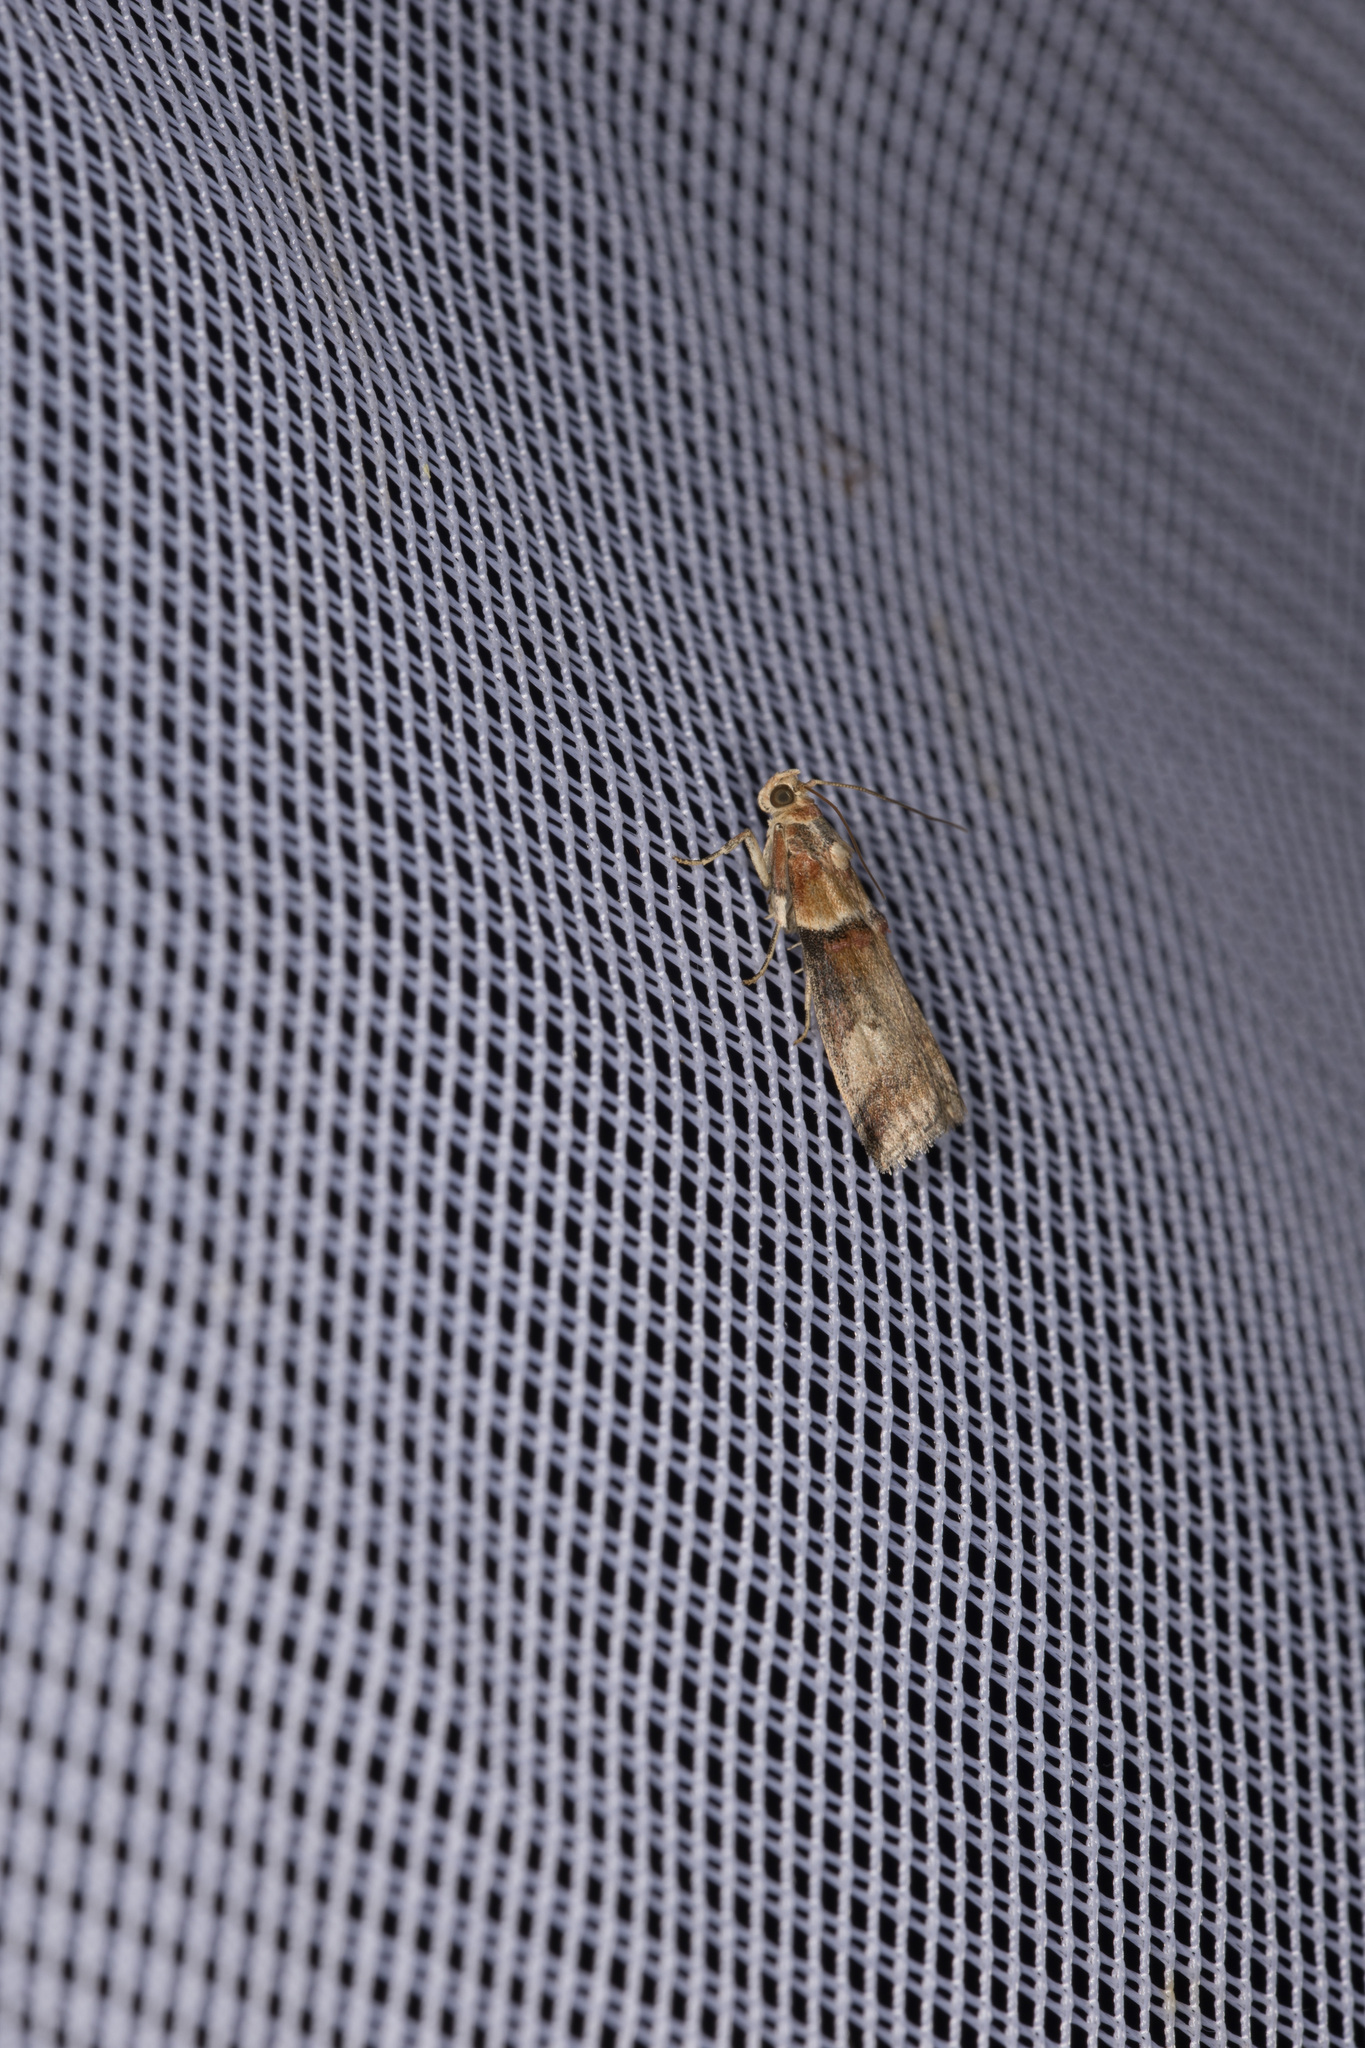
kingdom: Animalia
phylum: Arthropoda
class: Insecta
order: Lepidoptera
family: Pyralidae
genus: Acrobasis
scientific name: Acrobasis tumidana
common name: Scarce oak knot-horn
